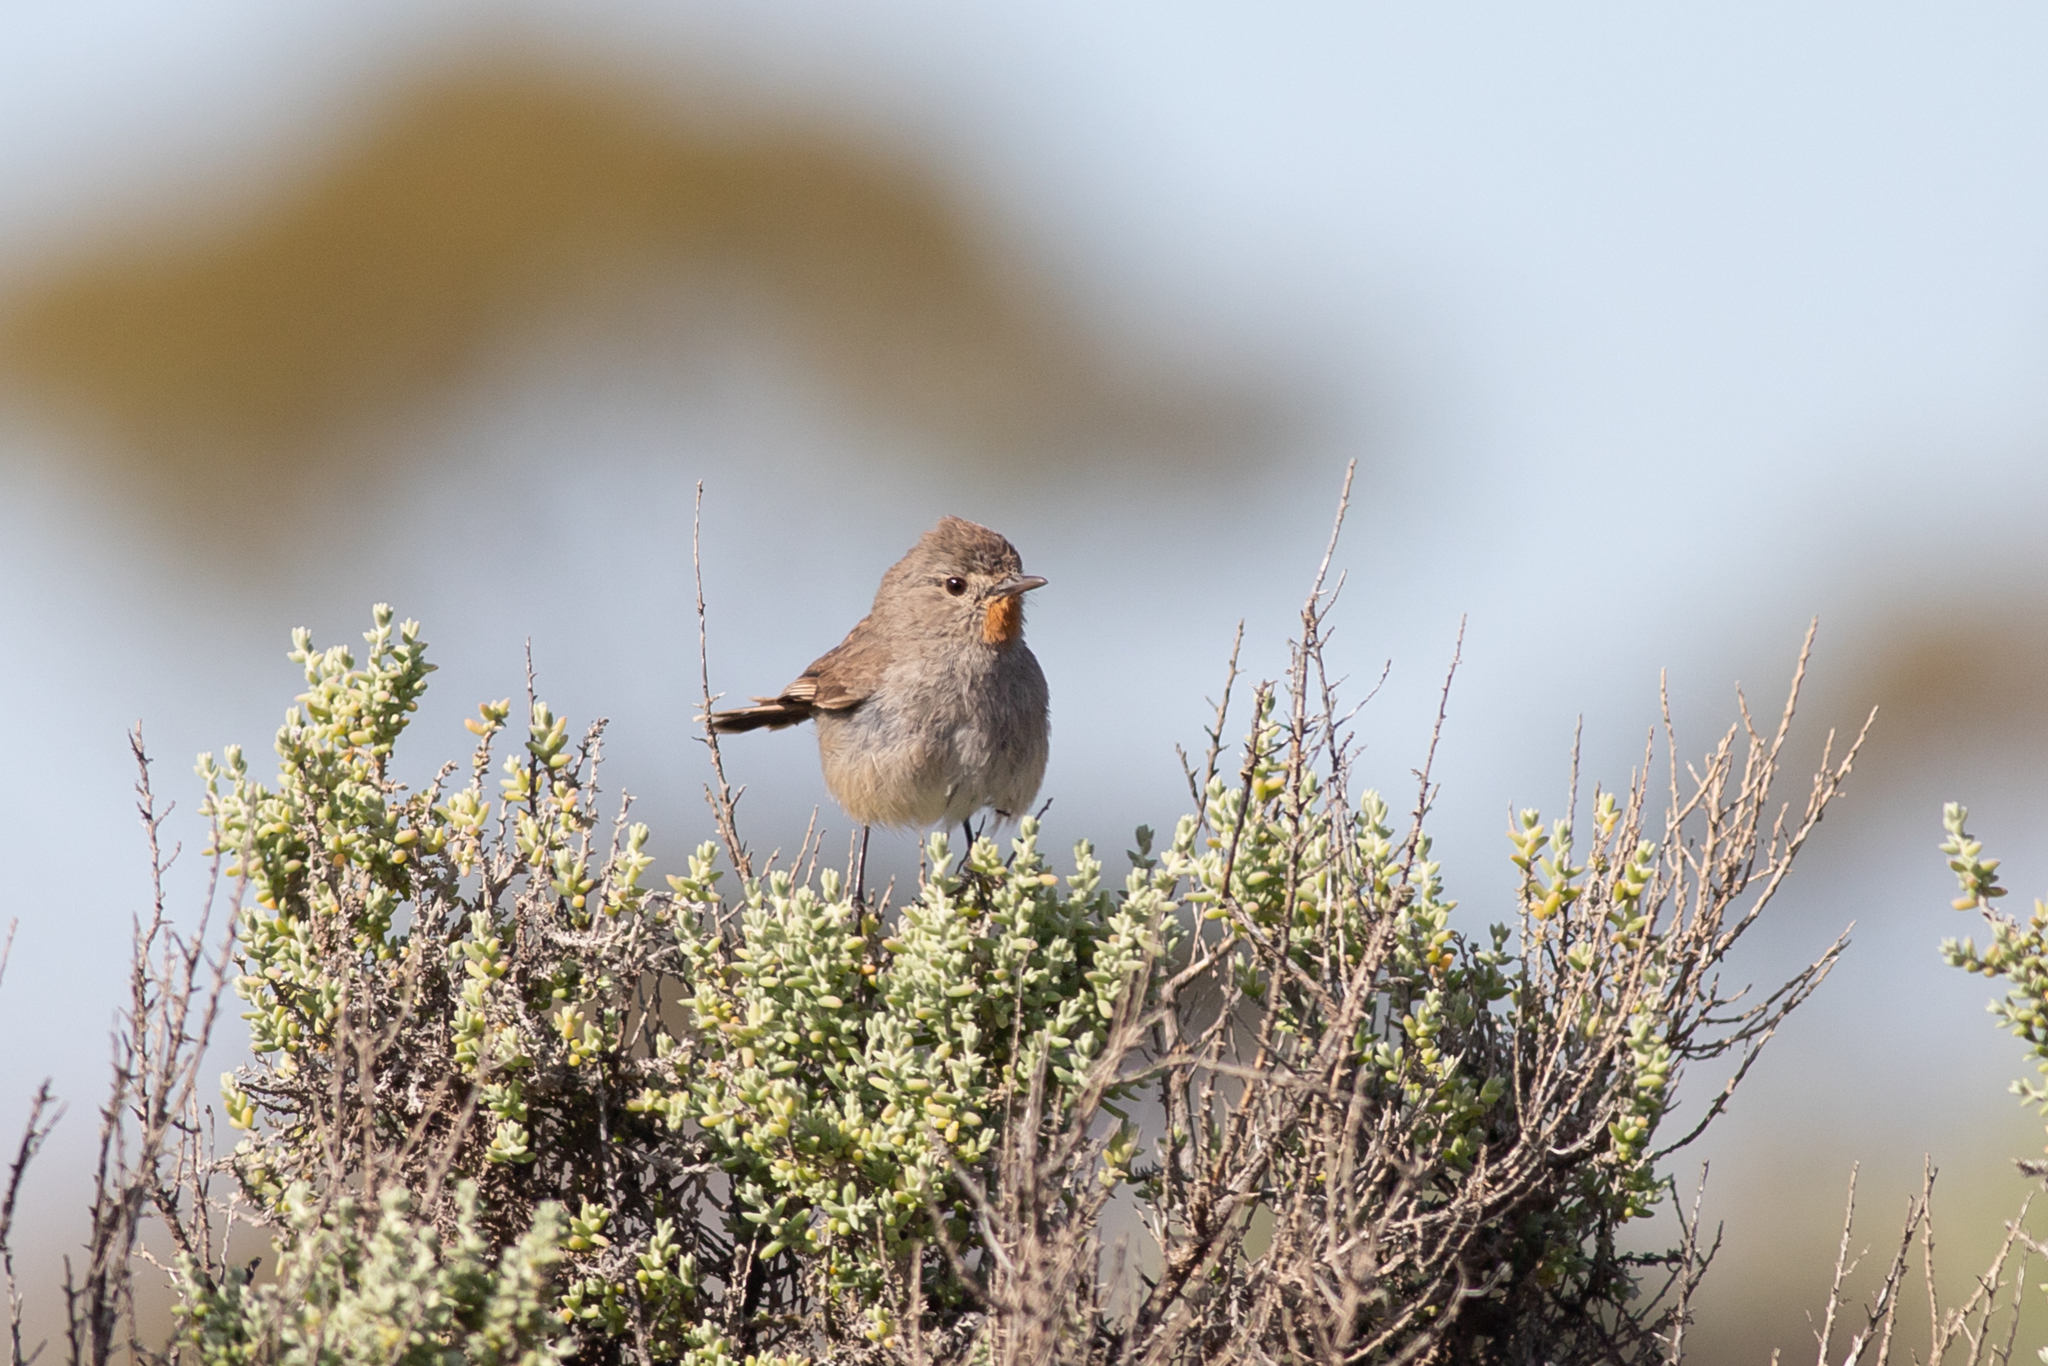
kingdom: Animalia
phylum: Chordata
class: Aves
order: Passeriformes
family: Acanthizidae
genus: Pyrrholaemus
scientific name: Pyrrholaemus brunneus
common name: Redthroat
